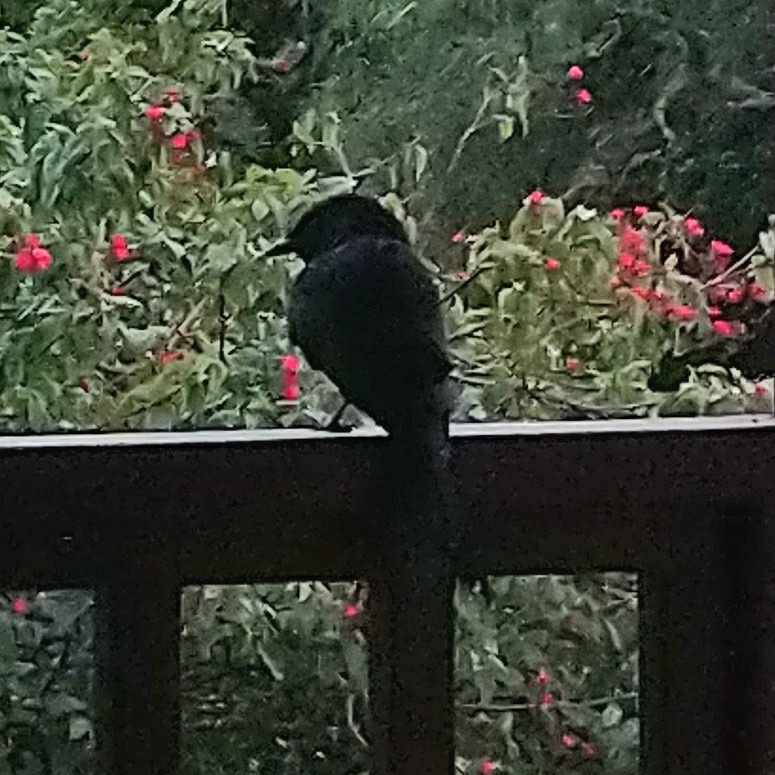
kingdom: Animalia
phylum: Chordata
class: Aves
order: Passeriformes
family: Dicruridae
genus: Dicrurus
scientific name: Dicrurus adsimilis
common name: Fork-tailed drongo
